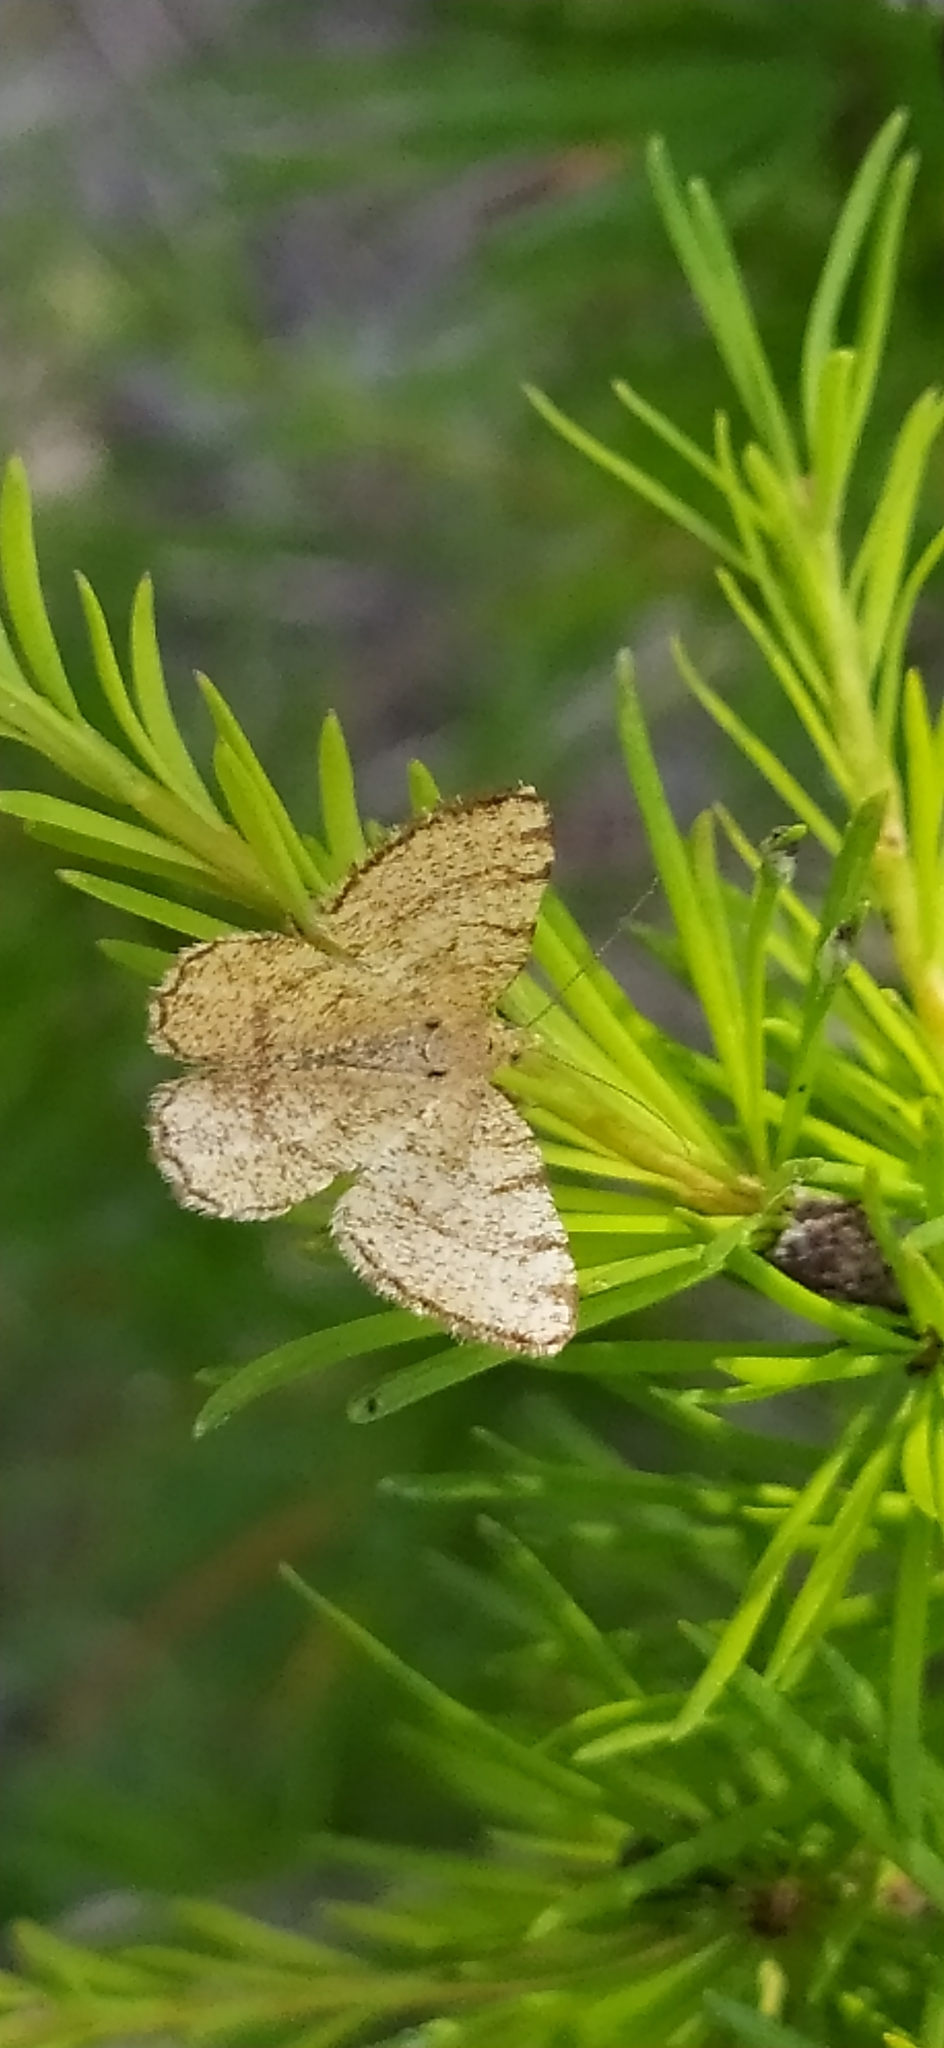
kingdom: Animalia
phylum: Arthropoda
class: Insecta
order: Lepidoptera
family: Geometridae
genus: Macaria
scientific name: Macaria brunneata
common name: Rannoch looper
